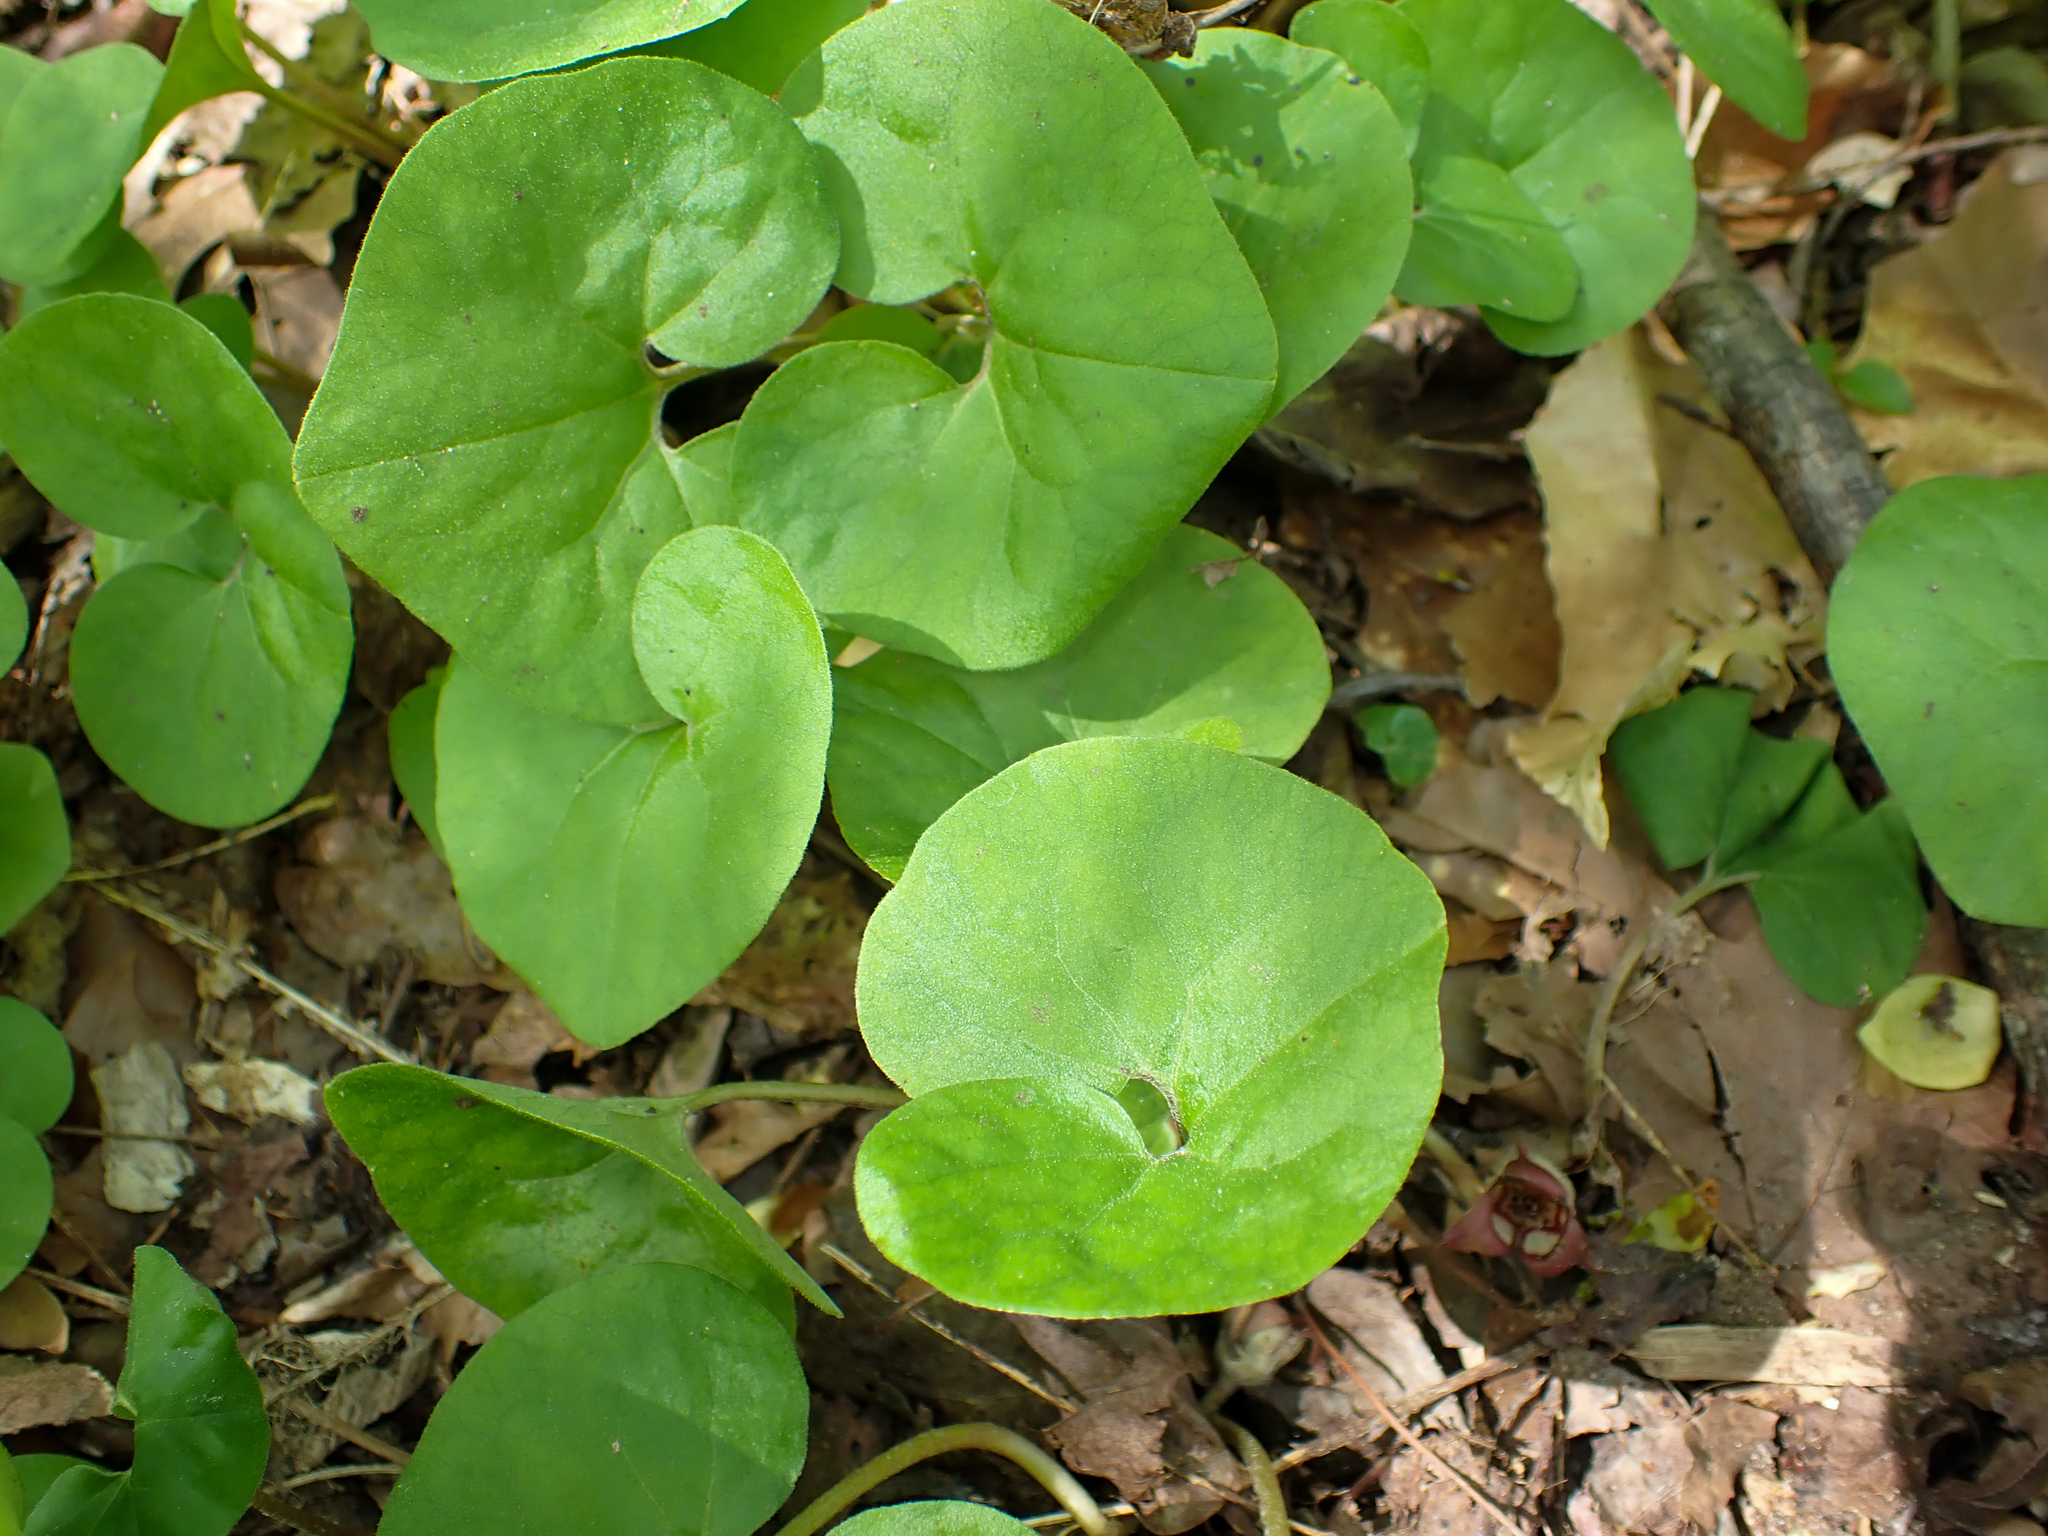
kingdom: Plantae
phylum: Tracheophyta
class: Magnoliopsida
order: Piperales
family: Aristolochiaceae
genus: Asarum
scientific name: Asarum canadense
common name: Wild ginger
